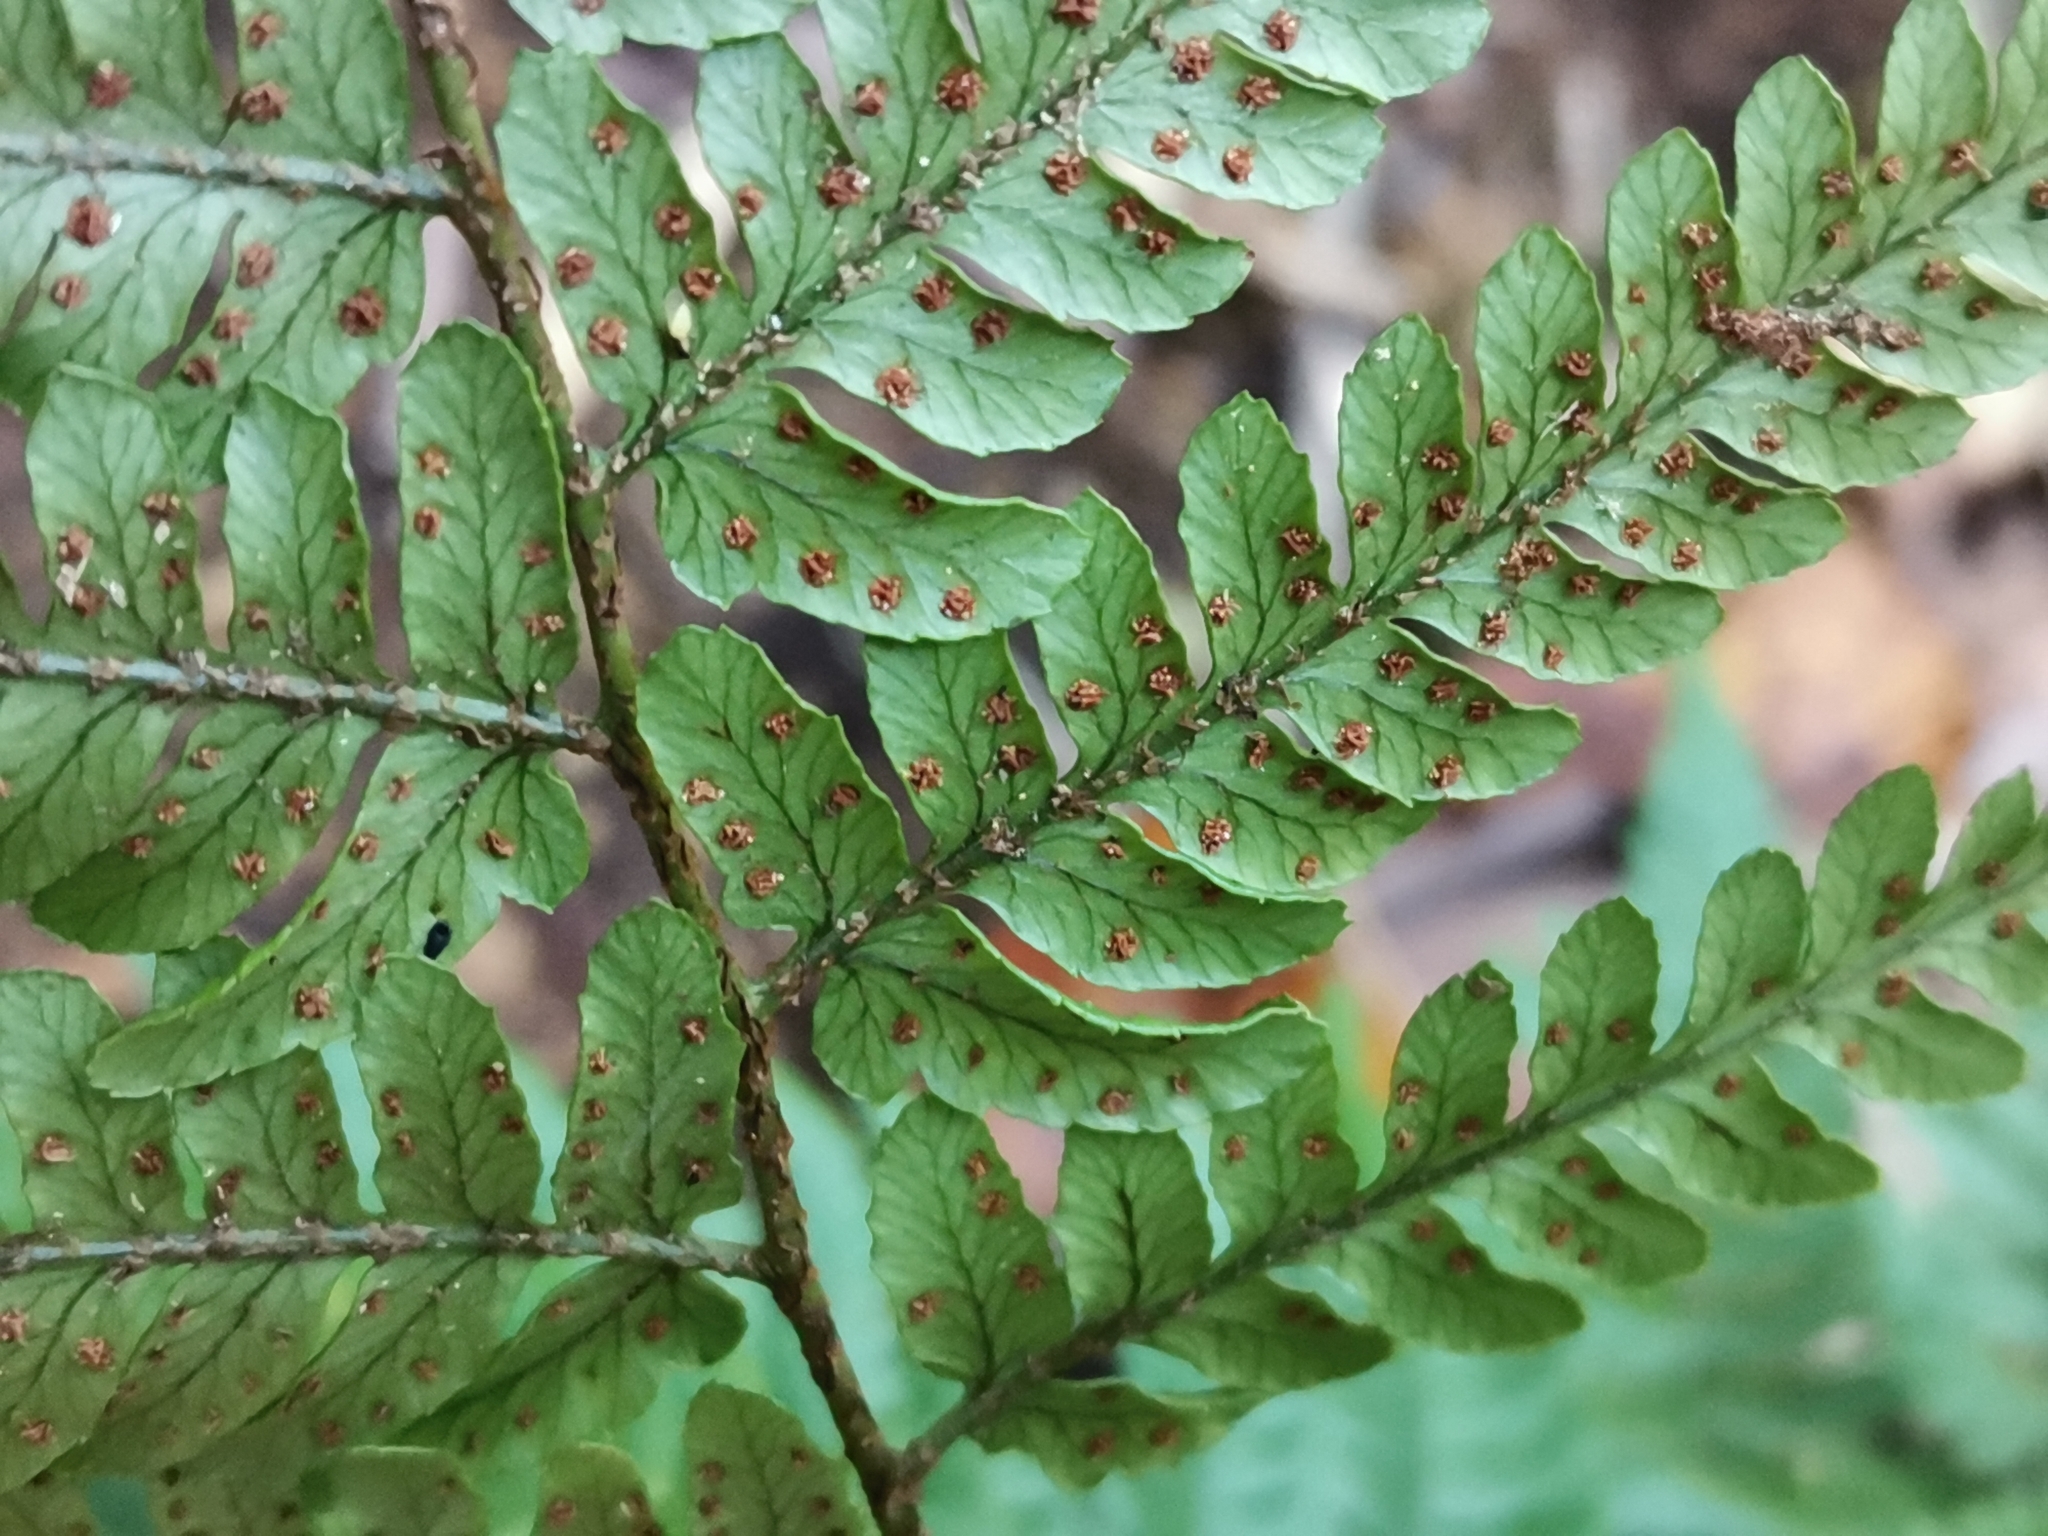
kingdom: Plantae
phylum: Tracheophyta
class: Polypodiopsida
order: Polypodiales
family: Dryopteridaceae
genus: Dryopteris
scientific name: Dryopteris immixta
